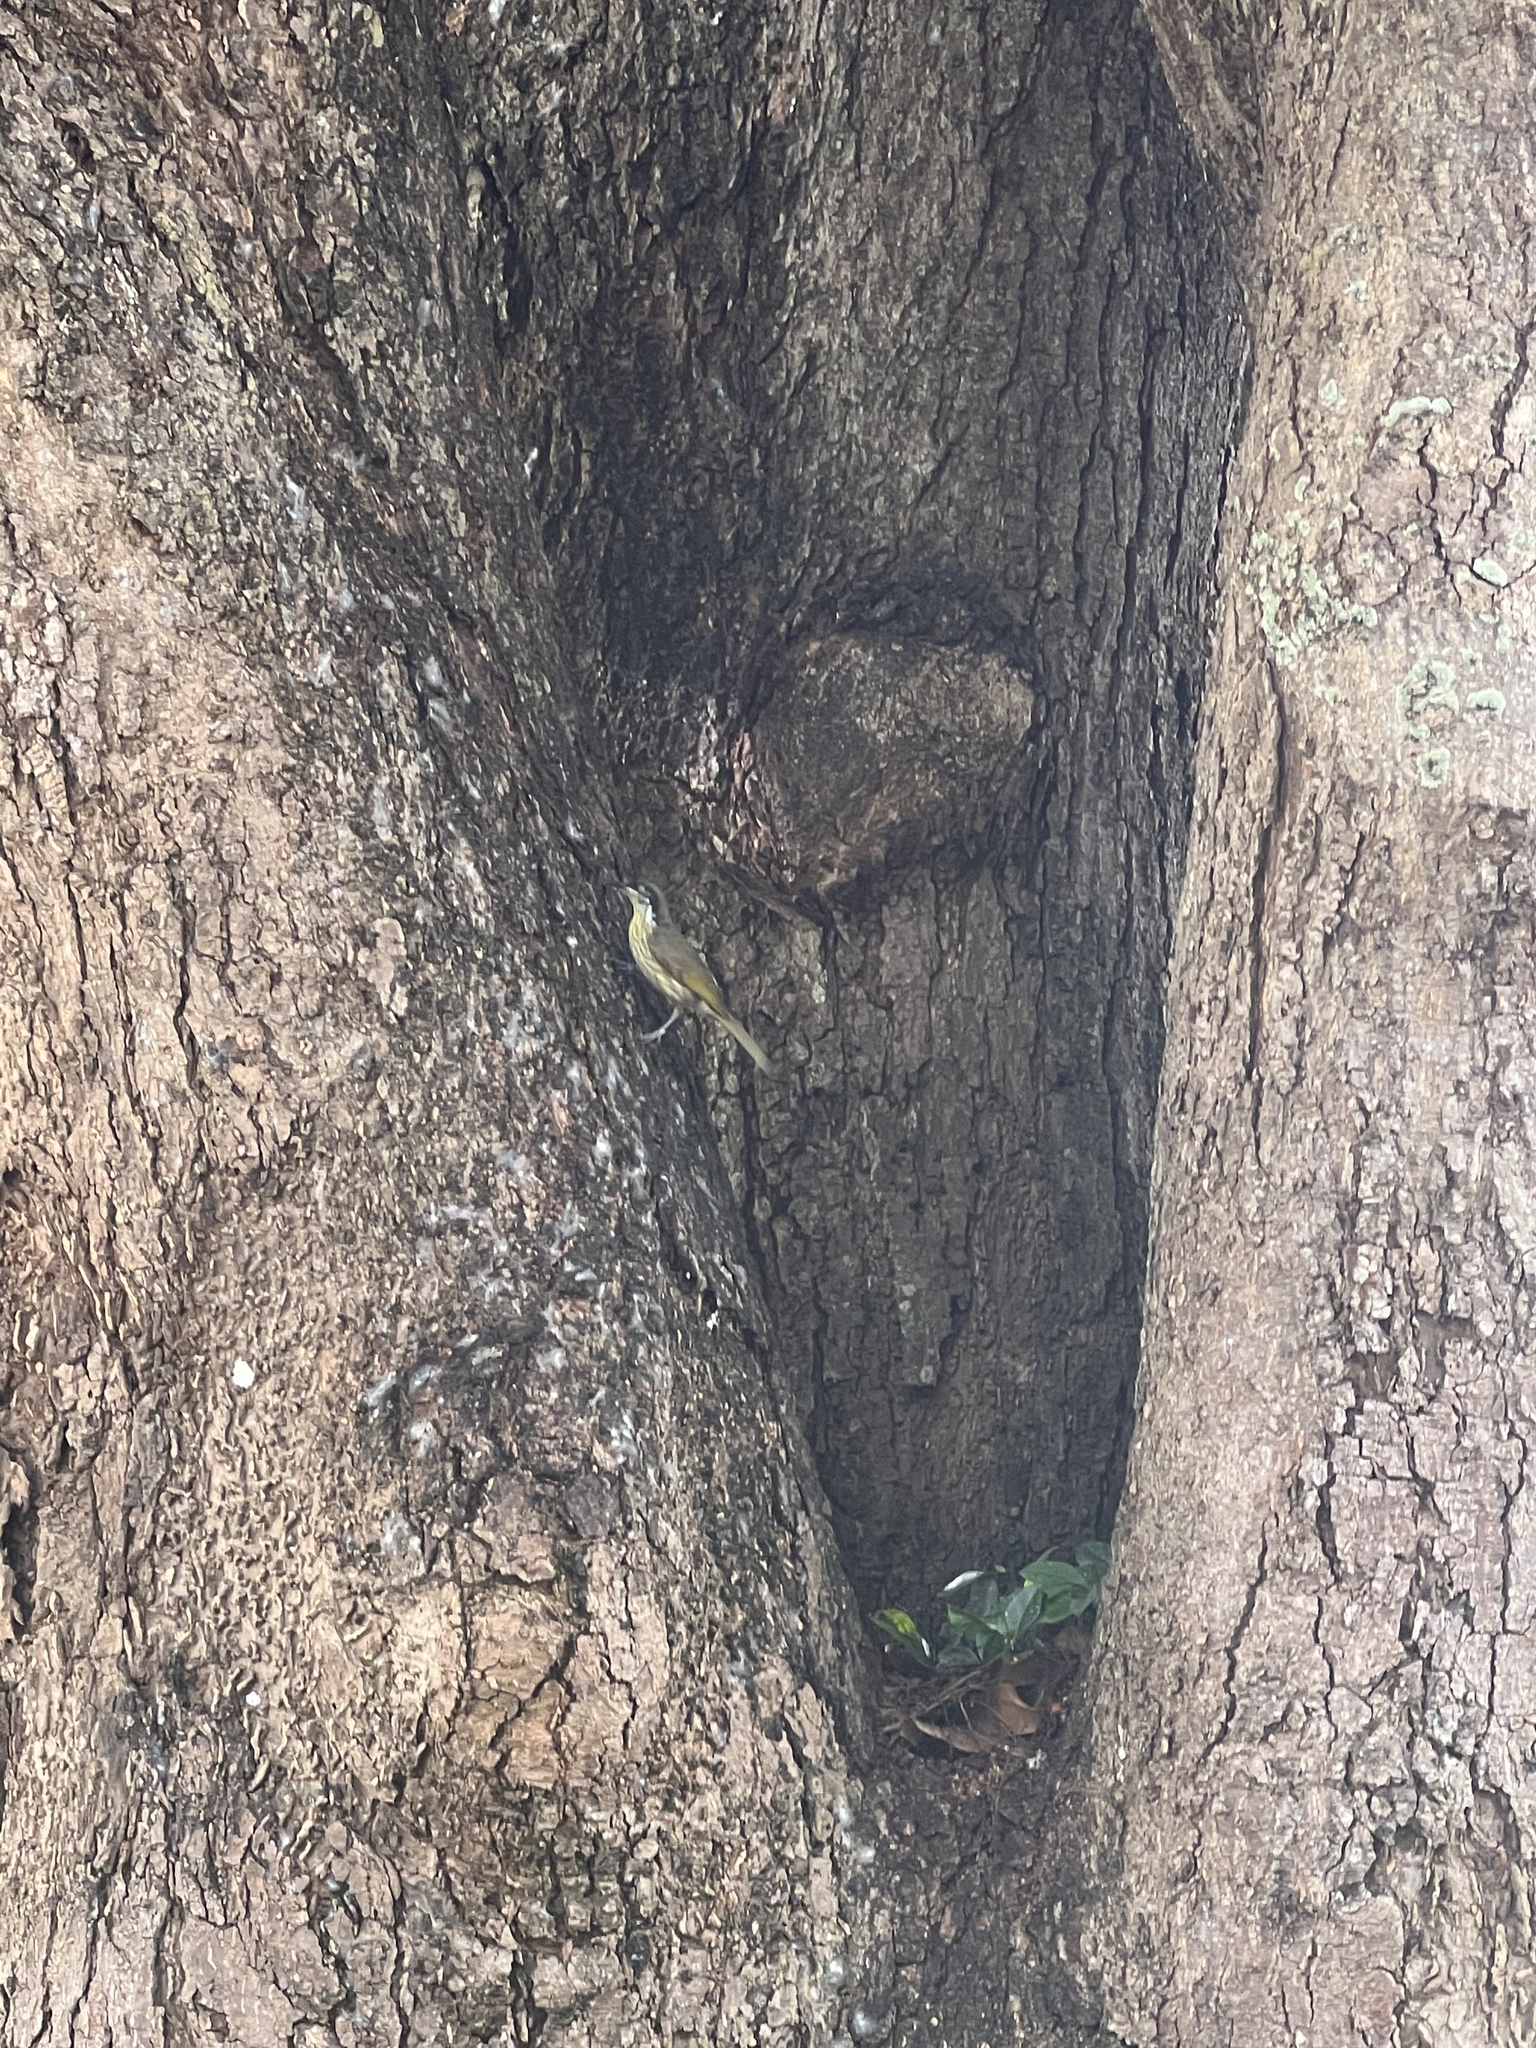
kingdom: Animalia
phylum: Chordata
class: Aves
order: Passeriformes
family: Meliphagidae
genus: Gavicalis
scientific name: Gavicalis versicolor
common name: Varied honeyeater
